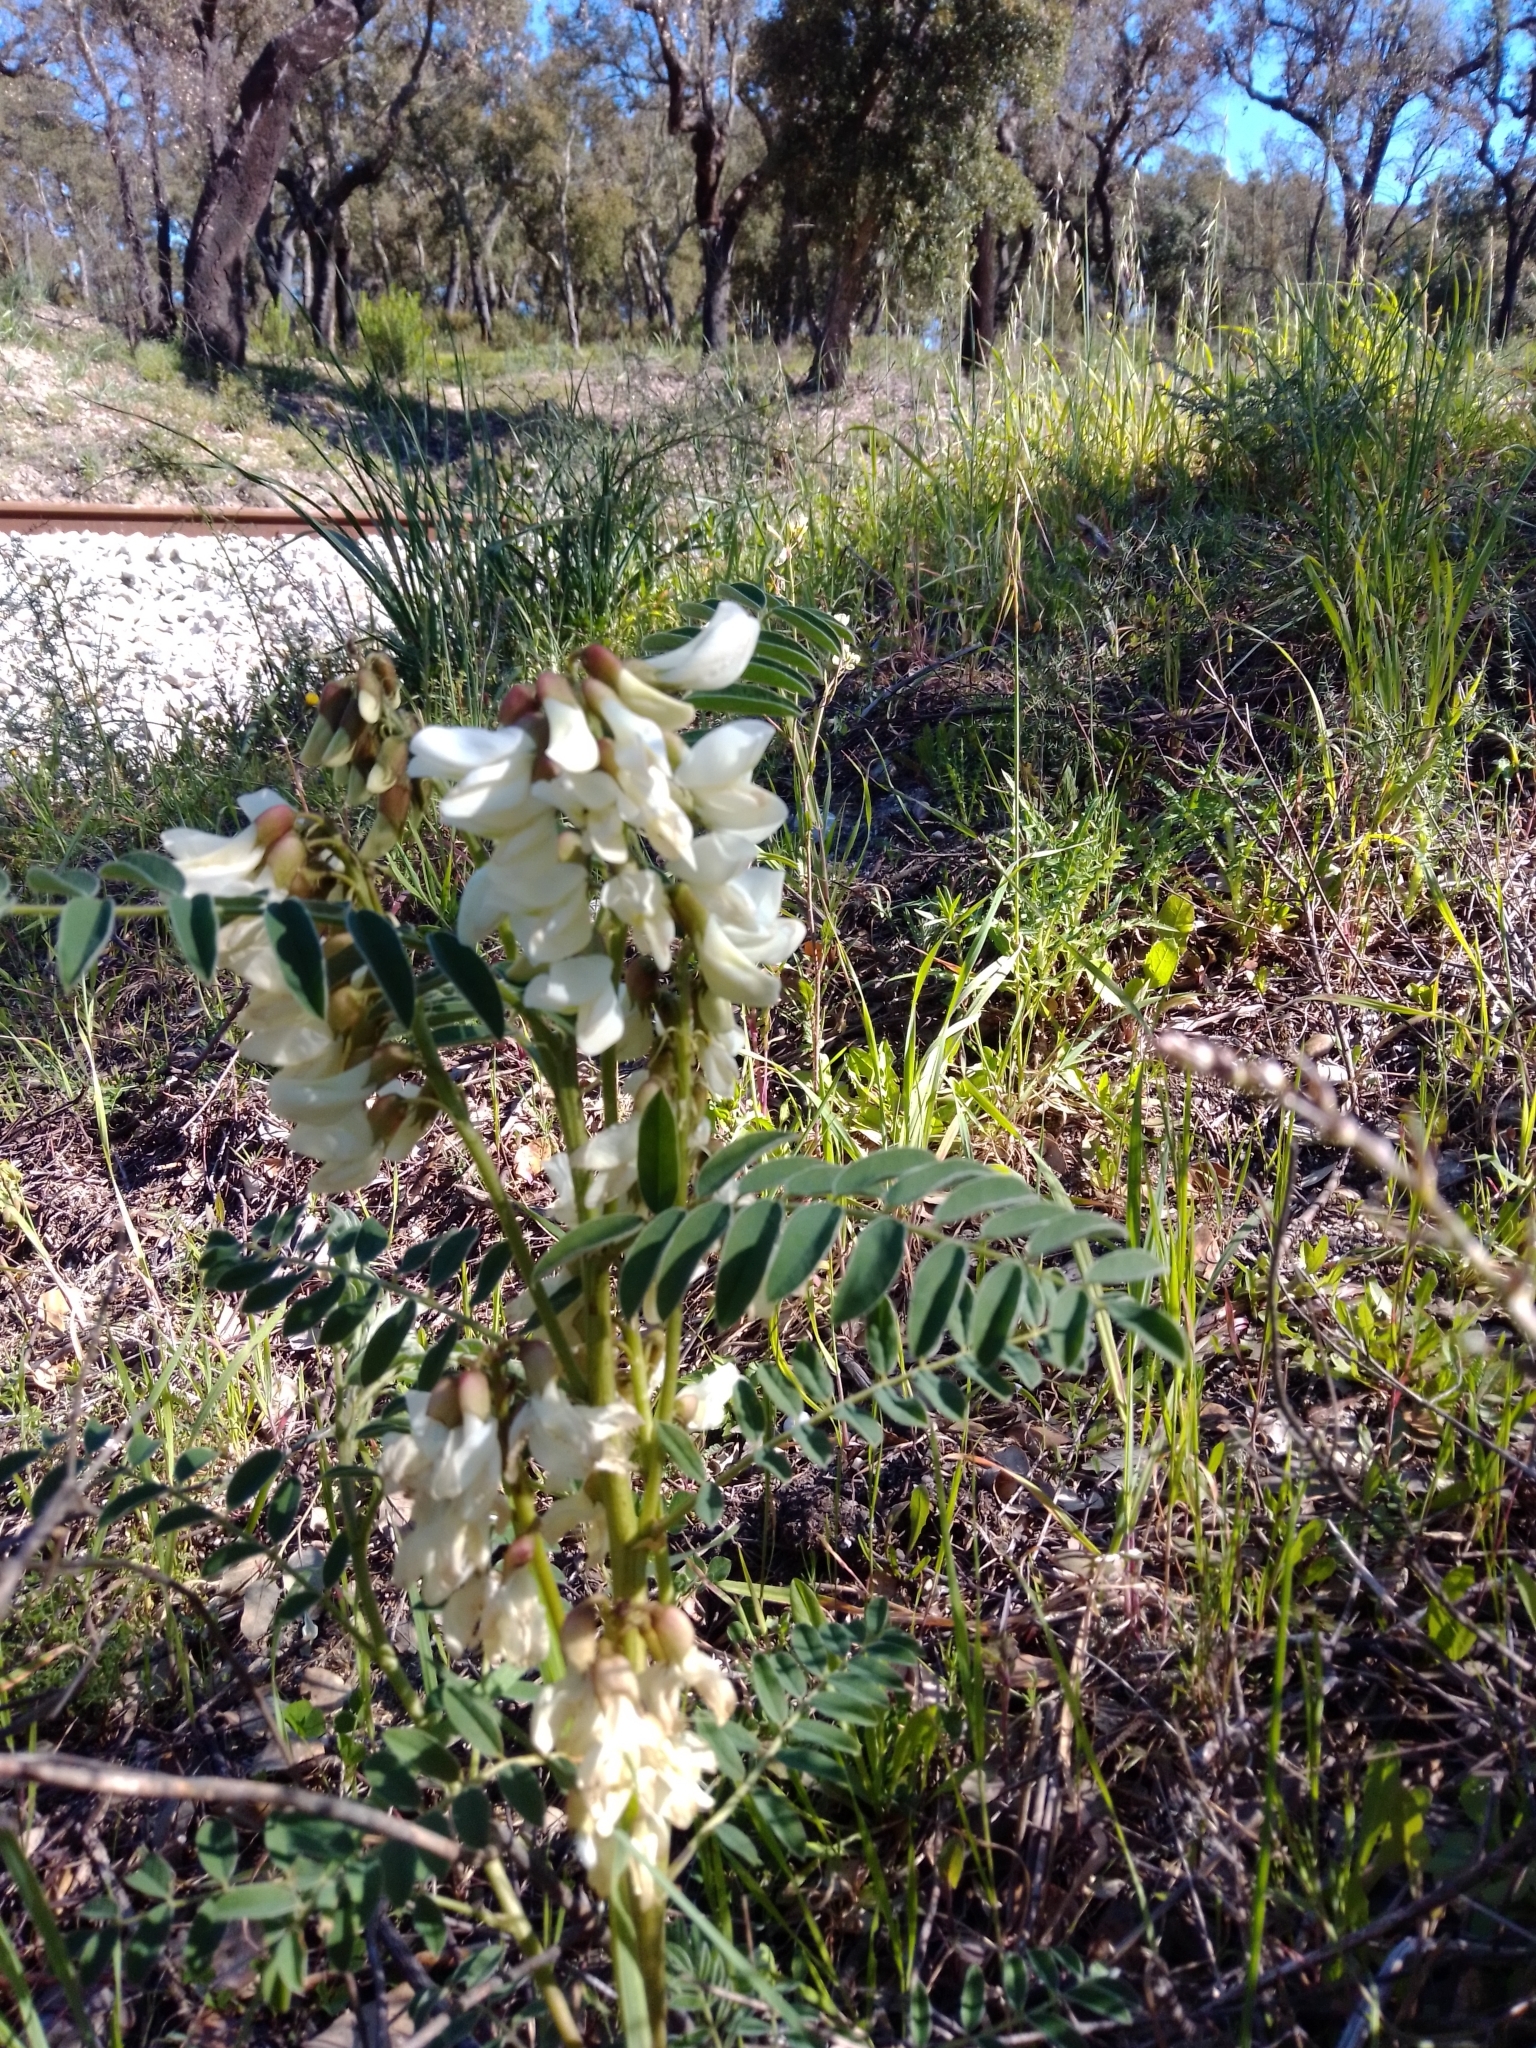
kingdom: Plantae
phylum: Tracheophyta
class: Magnoliopsida
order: Fabales
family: Fabaceae
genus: Erophaca
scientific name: Erophaca baetica
